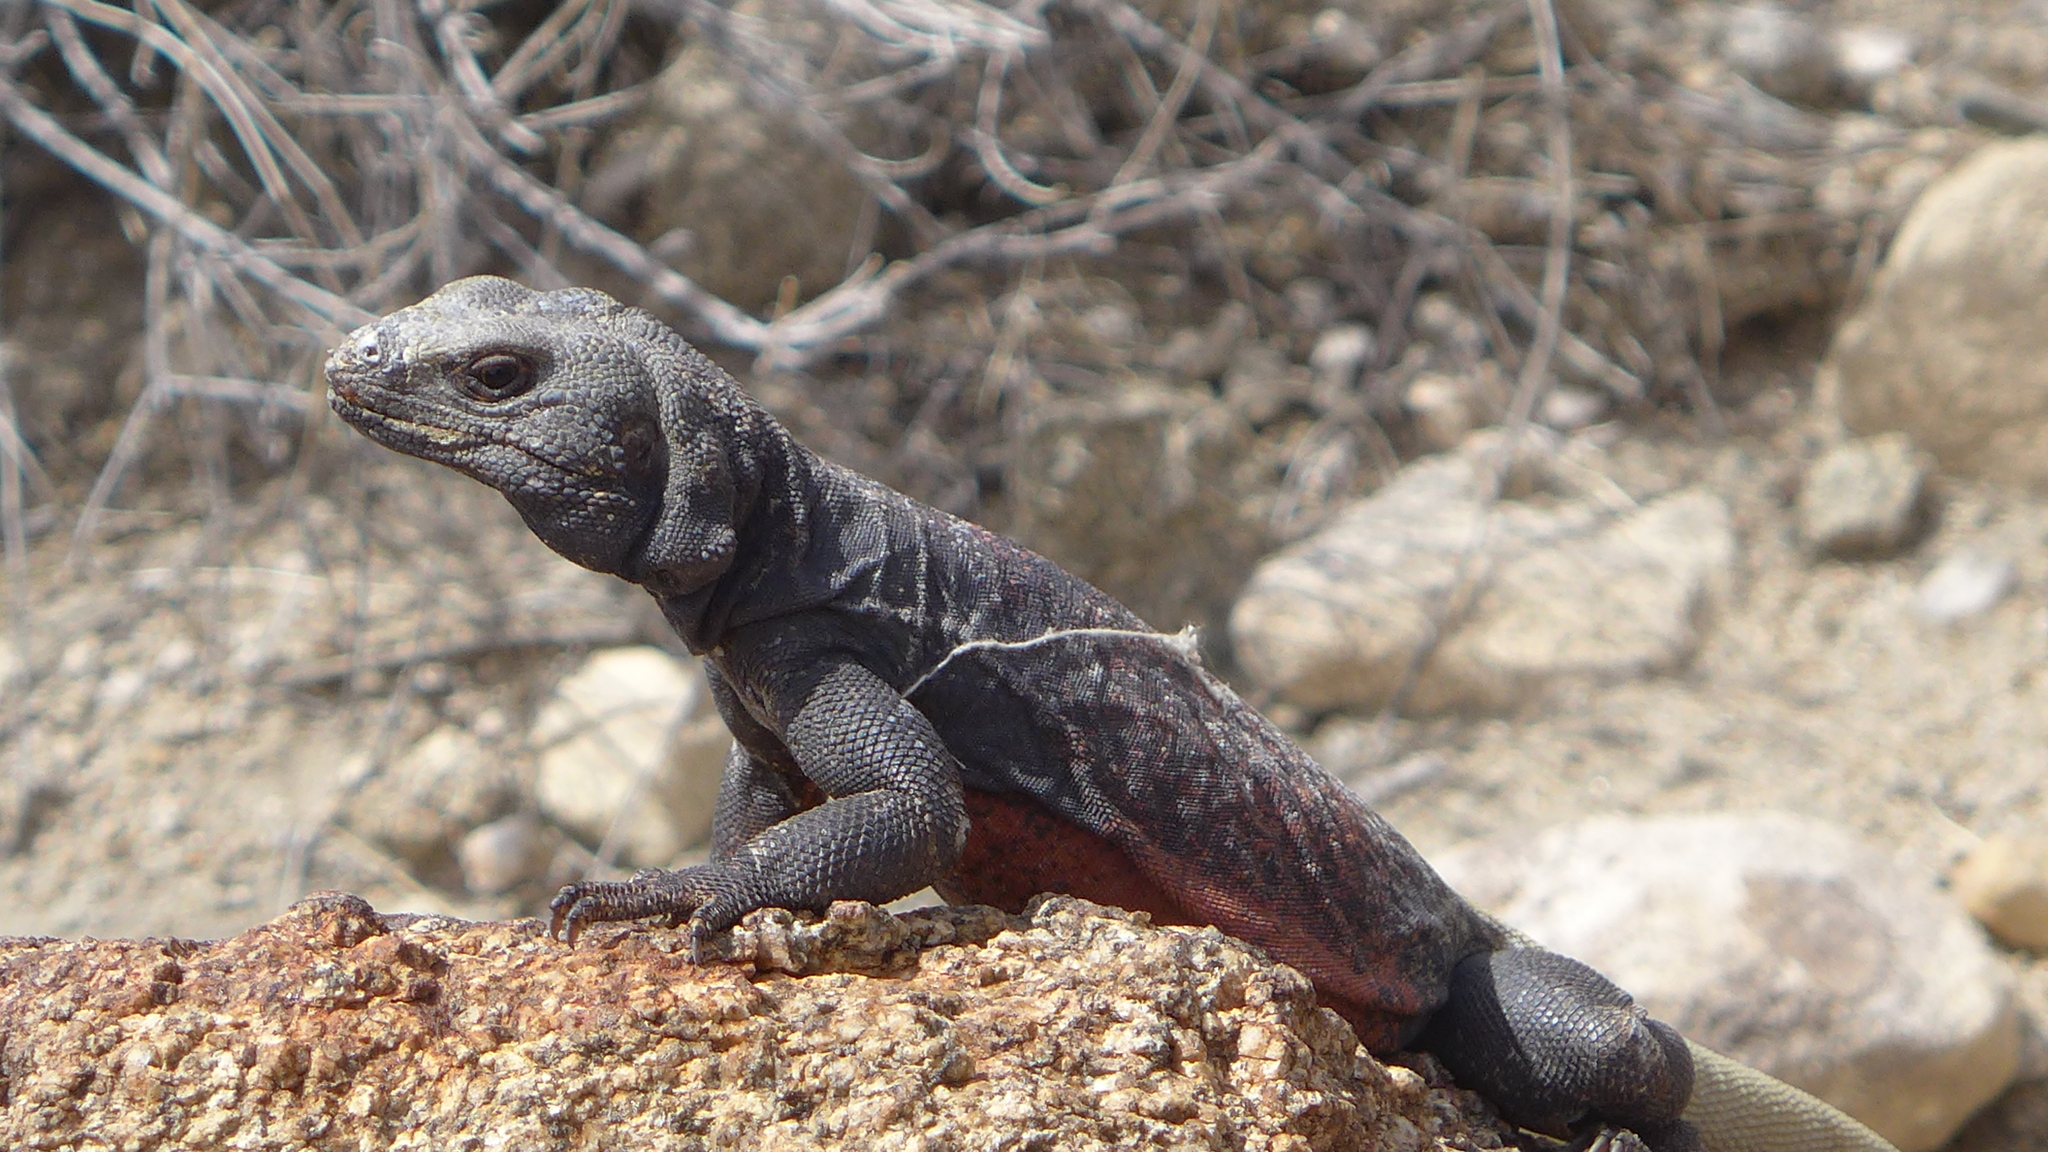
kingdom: Animalia
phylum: Chordata
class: Squamata
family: Iguanidae
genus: Sauromalus
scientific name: Sauromalus ater
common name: Northern chuckwalla
